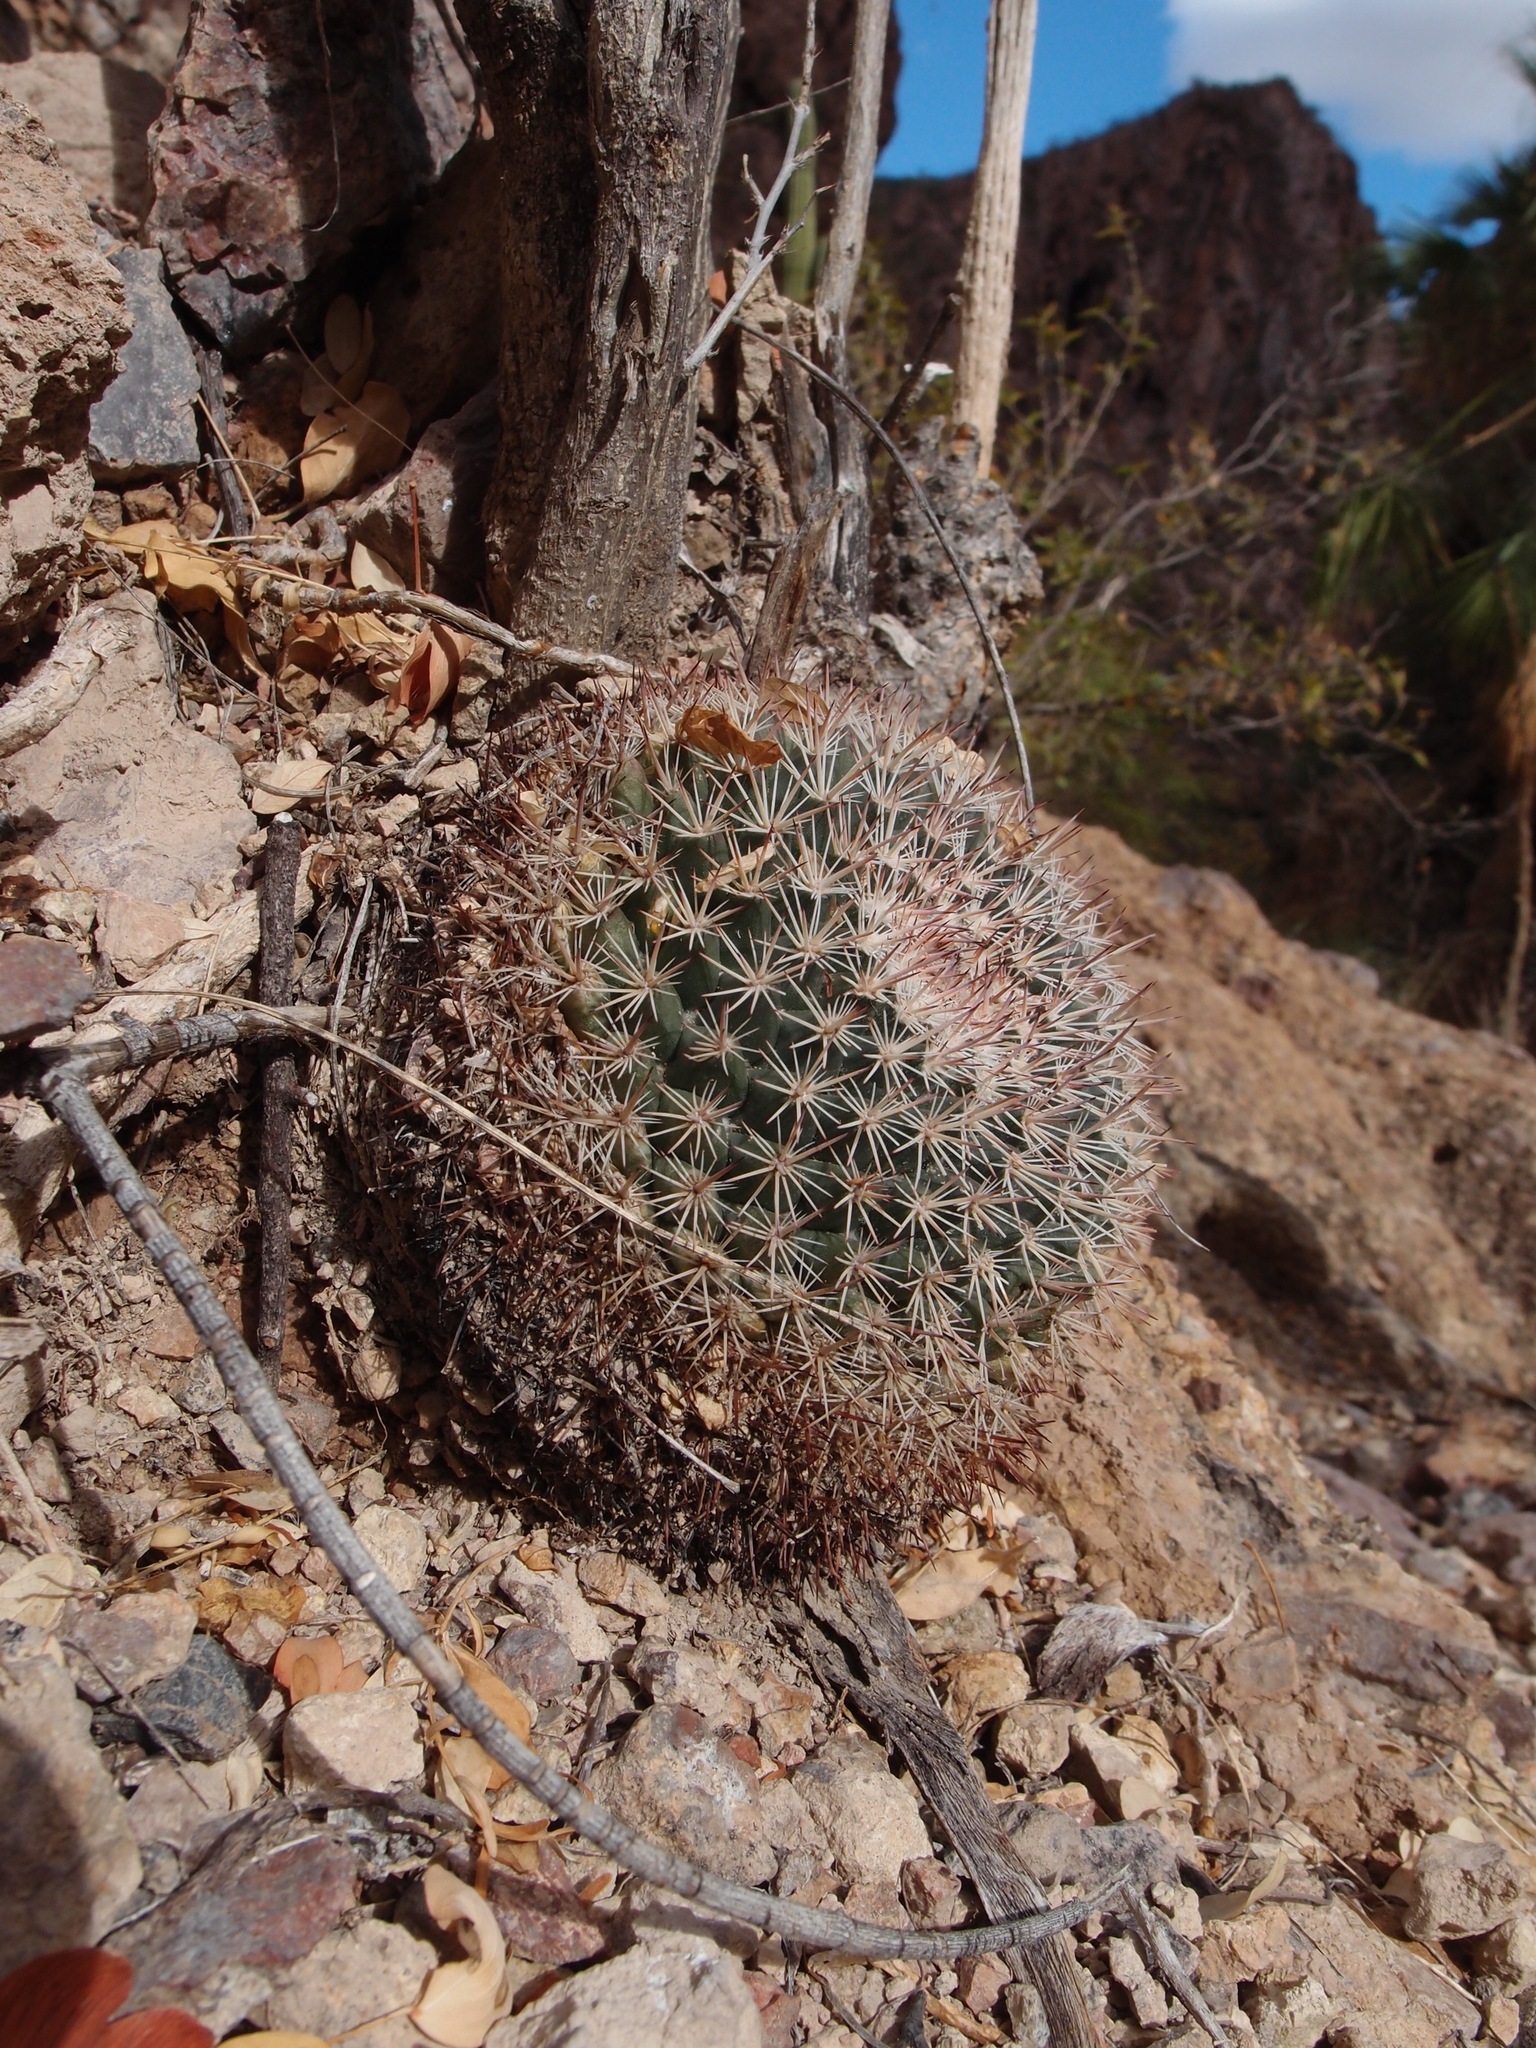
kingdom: Plantae
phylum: Tracheophyta
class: Magnoliopsida
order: Caryophyllales
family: Cactaceae
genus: Mammillaria
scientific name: Mammillaria johnstonii
